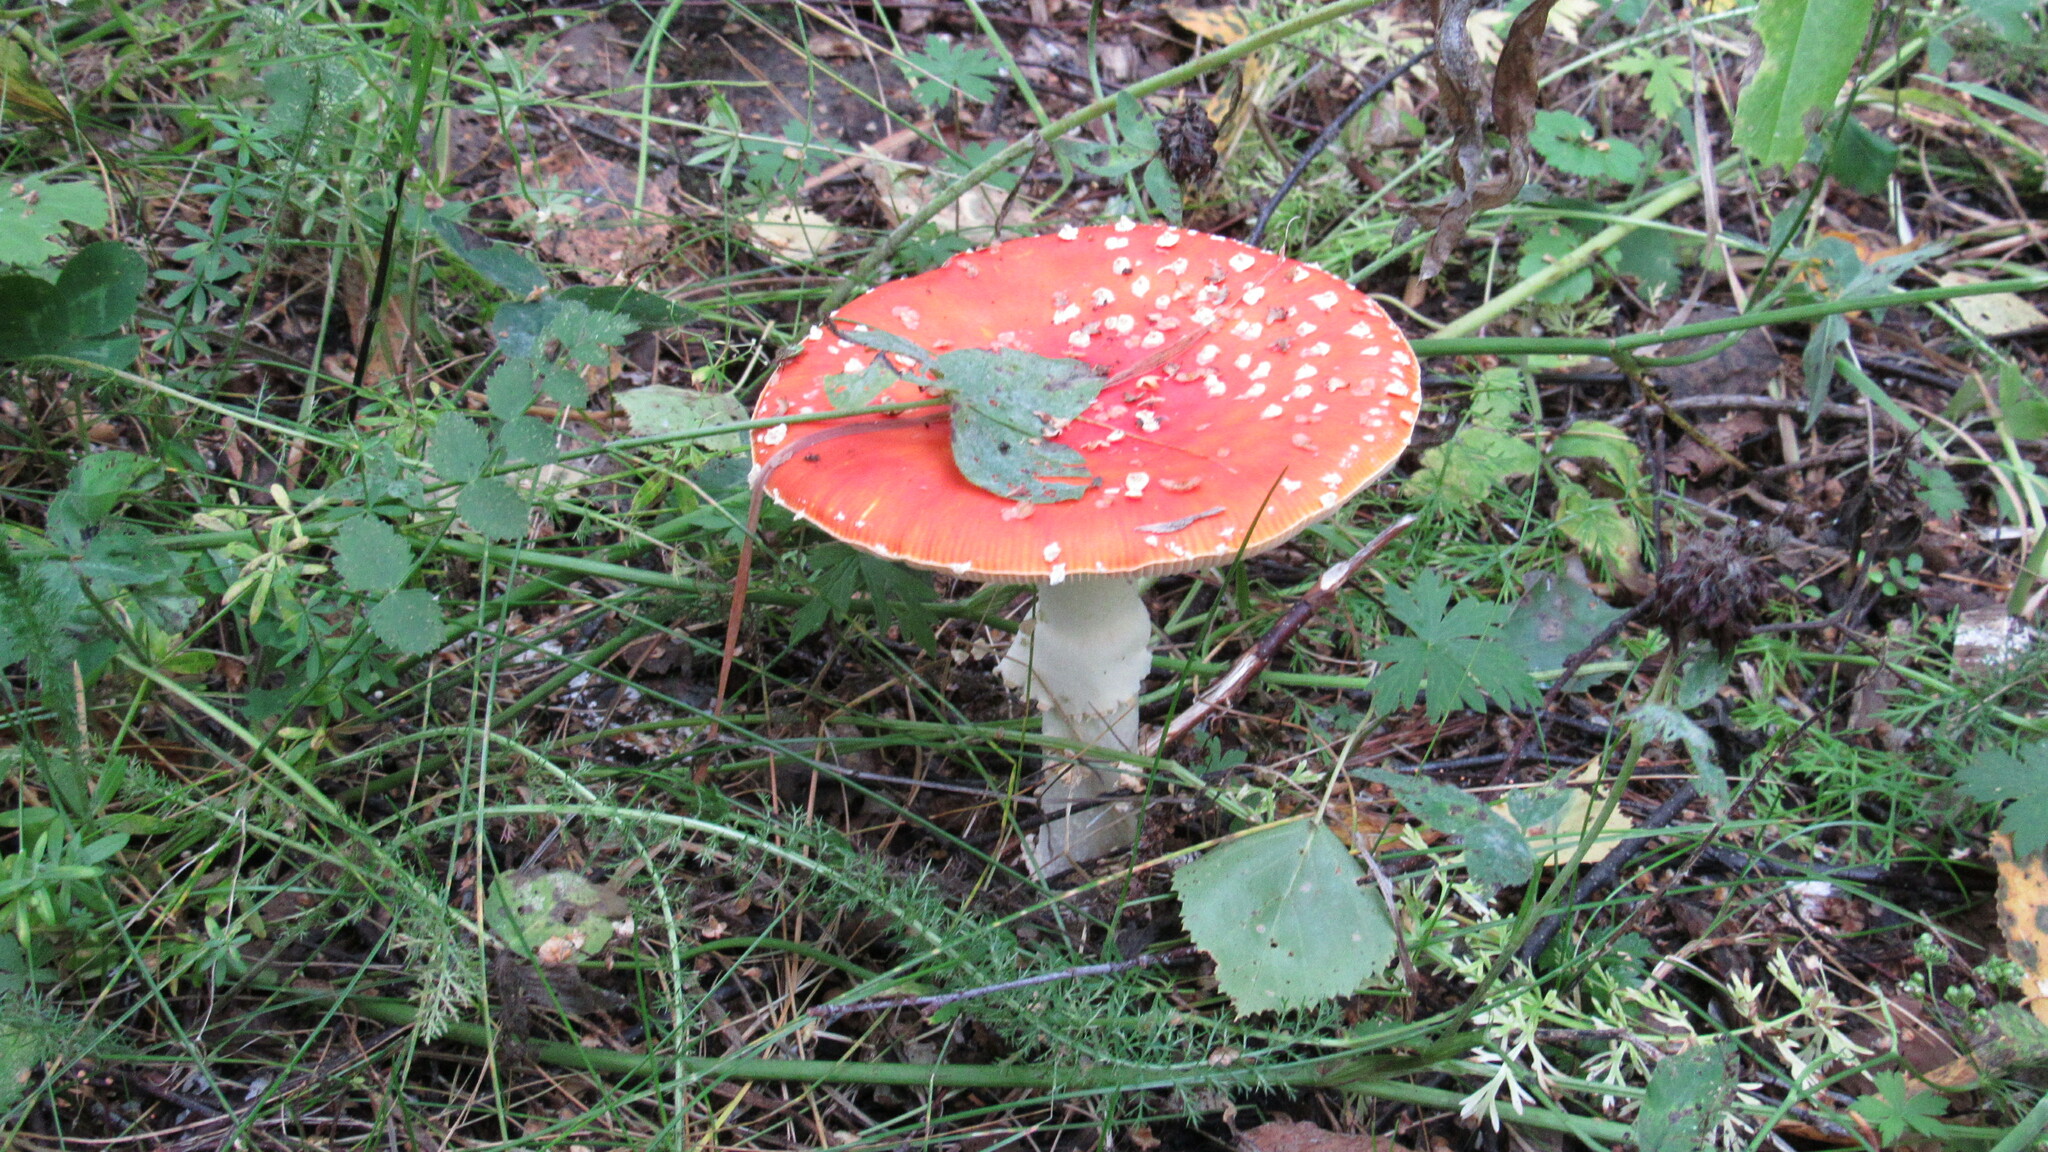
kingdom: Fungi
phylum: Basidiomycota
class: Agaricomycetes
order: Agaricales
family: Amanitaceae
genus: Amanita
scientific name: Amanita muscaria
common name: Fly agaric
